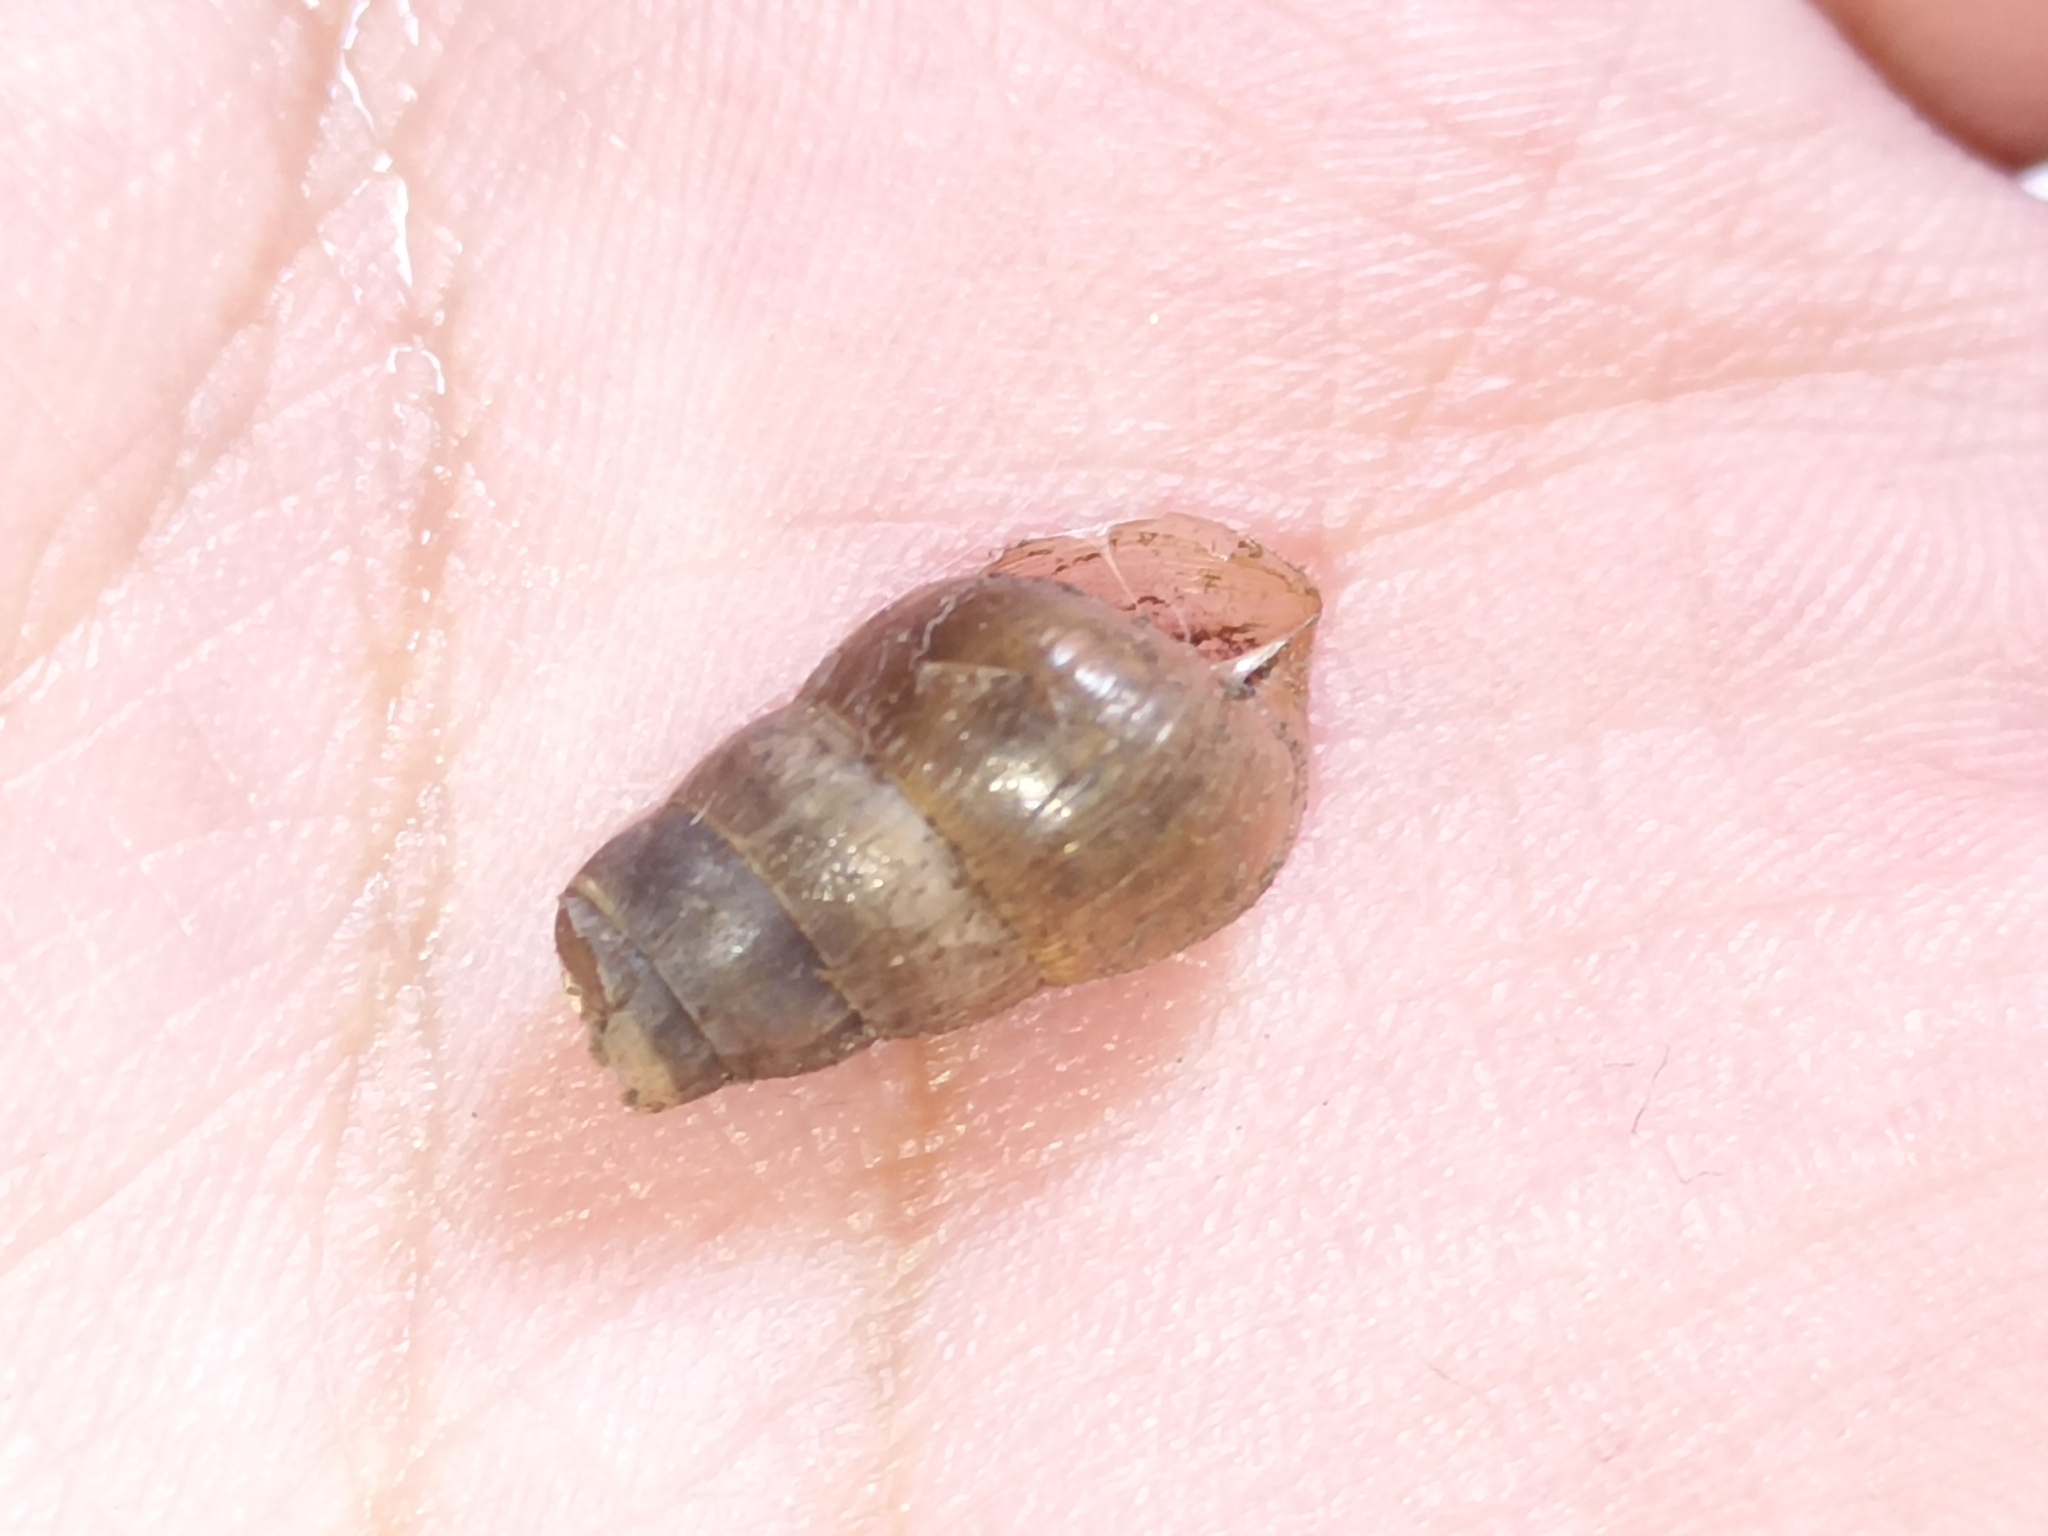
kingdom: Animalia
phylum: Mollusca
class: Gastropoda
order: Stylommatophora
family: Achatinidae
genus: Rumina
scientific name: Rumina decollata
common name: Decollate snail
